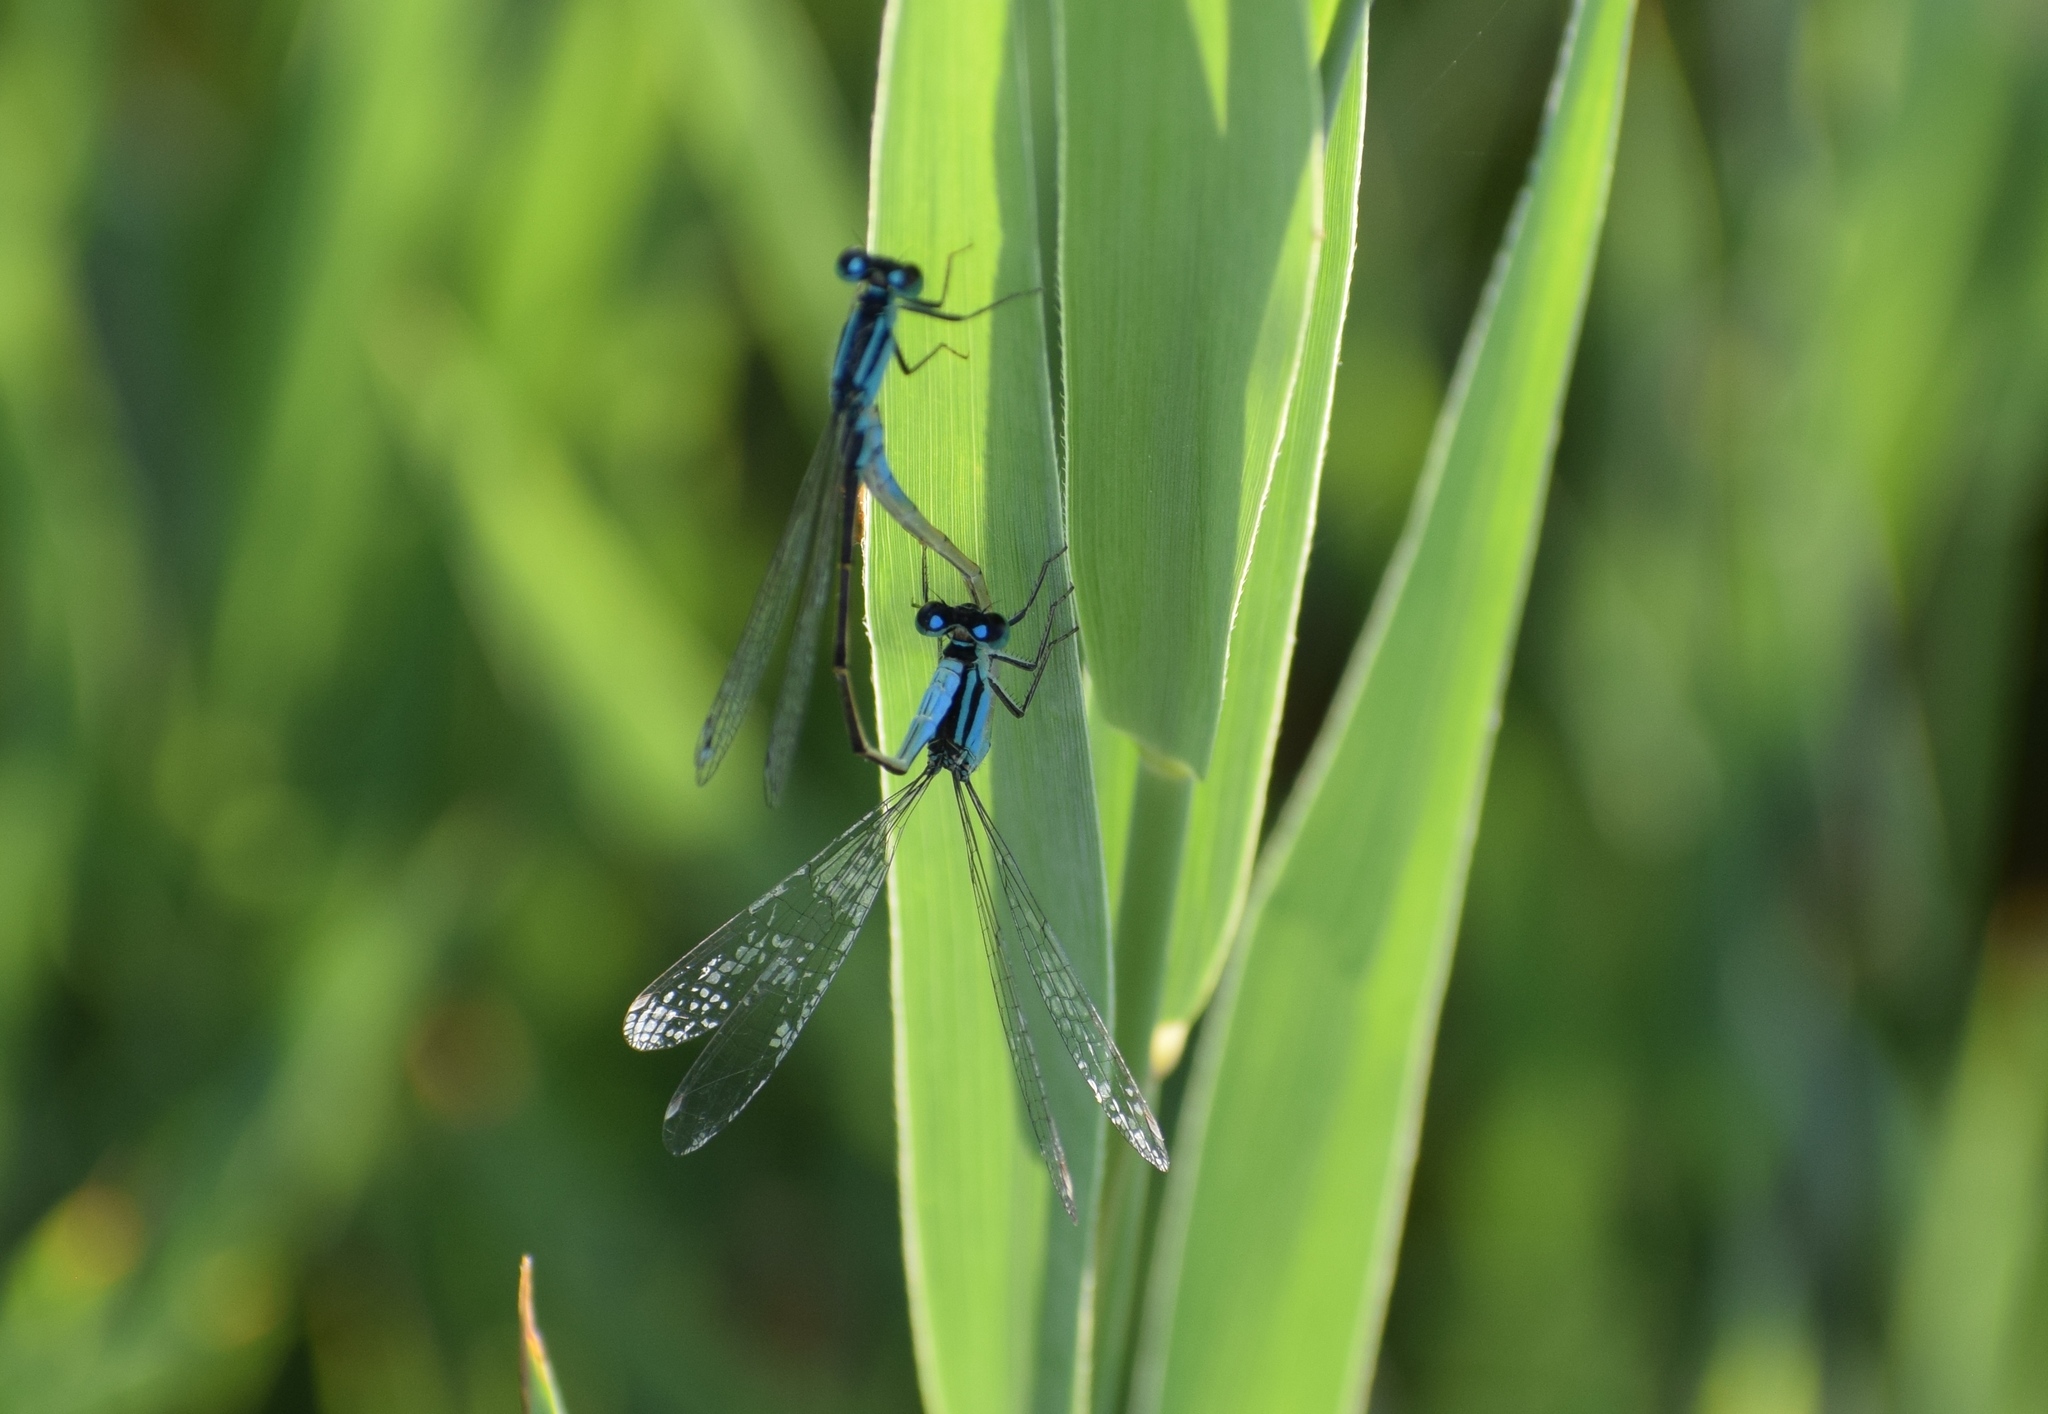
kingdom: Animalia
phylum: Arthropoda
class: Insecta
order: Odonata
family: Coenagrionidae
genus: Ischnura
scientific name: Ischnura elegans
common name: Blue-tailed damselfly
